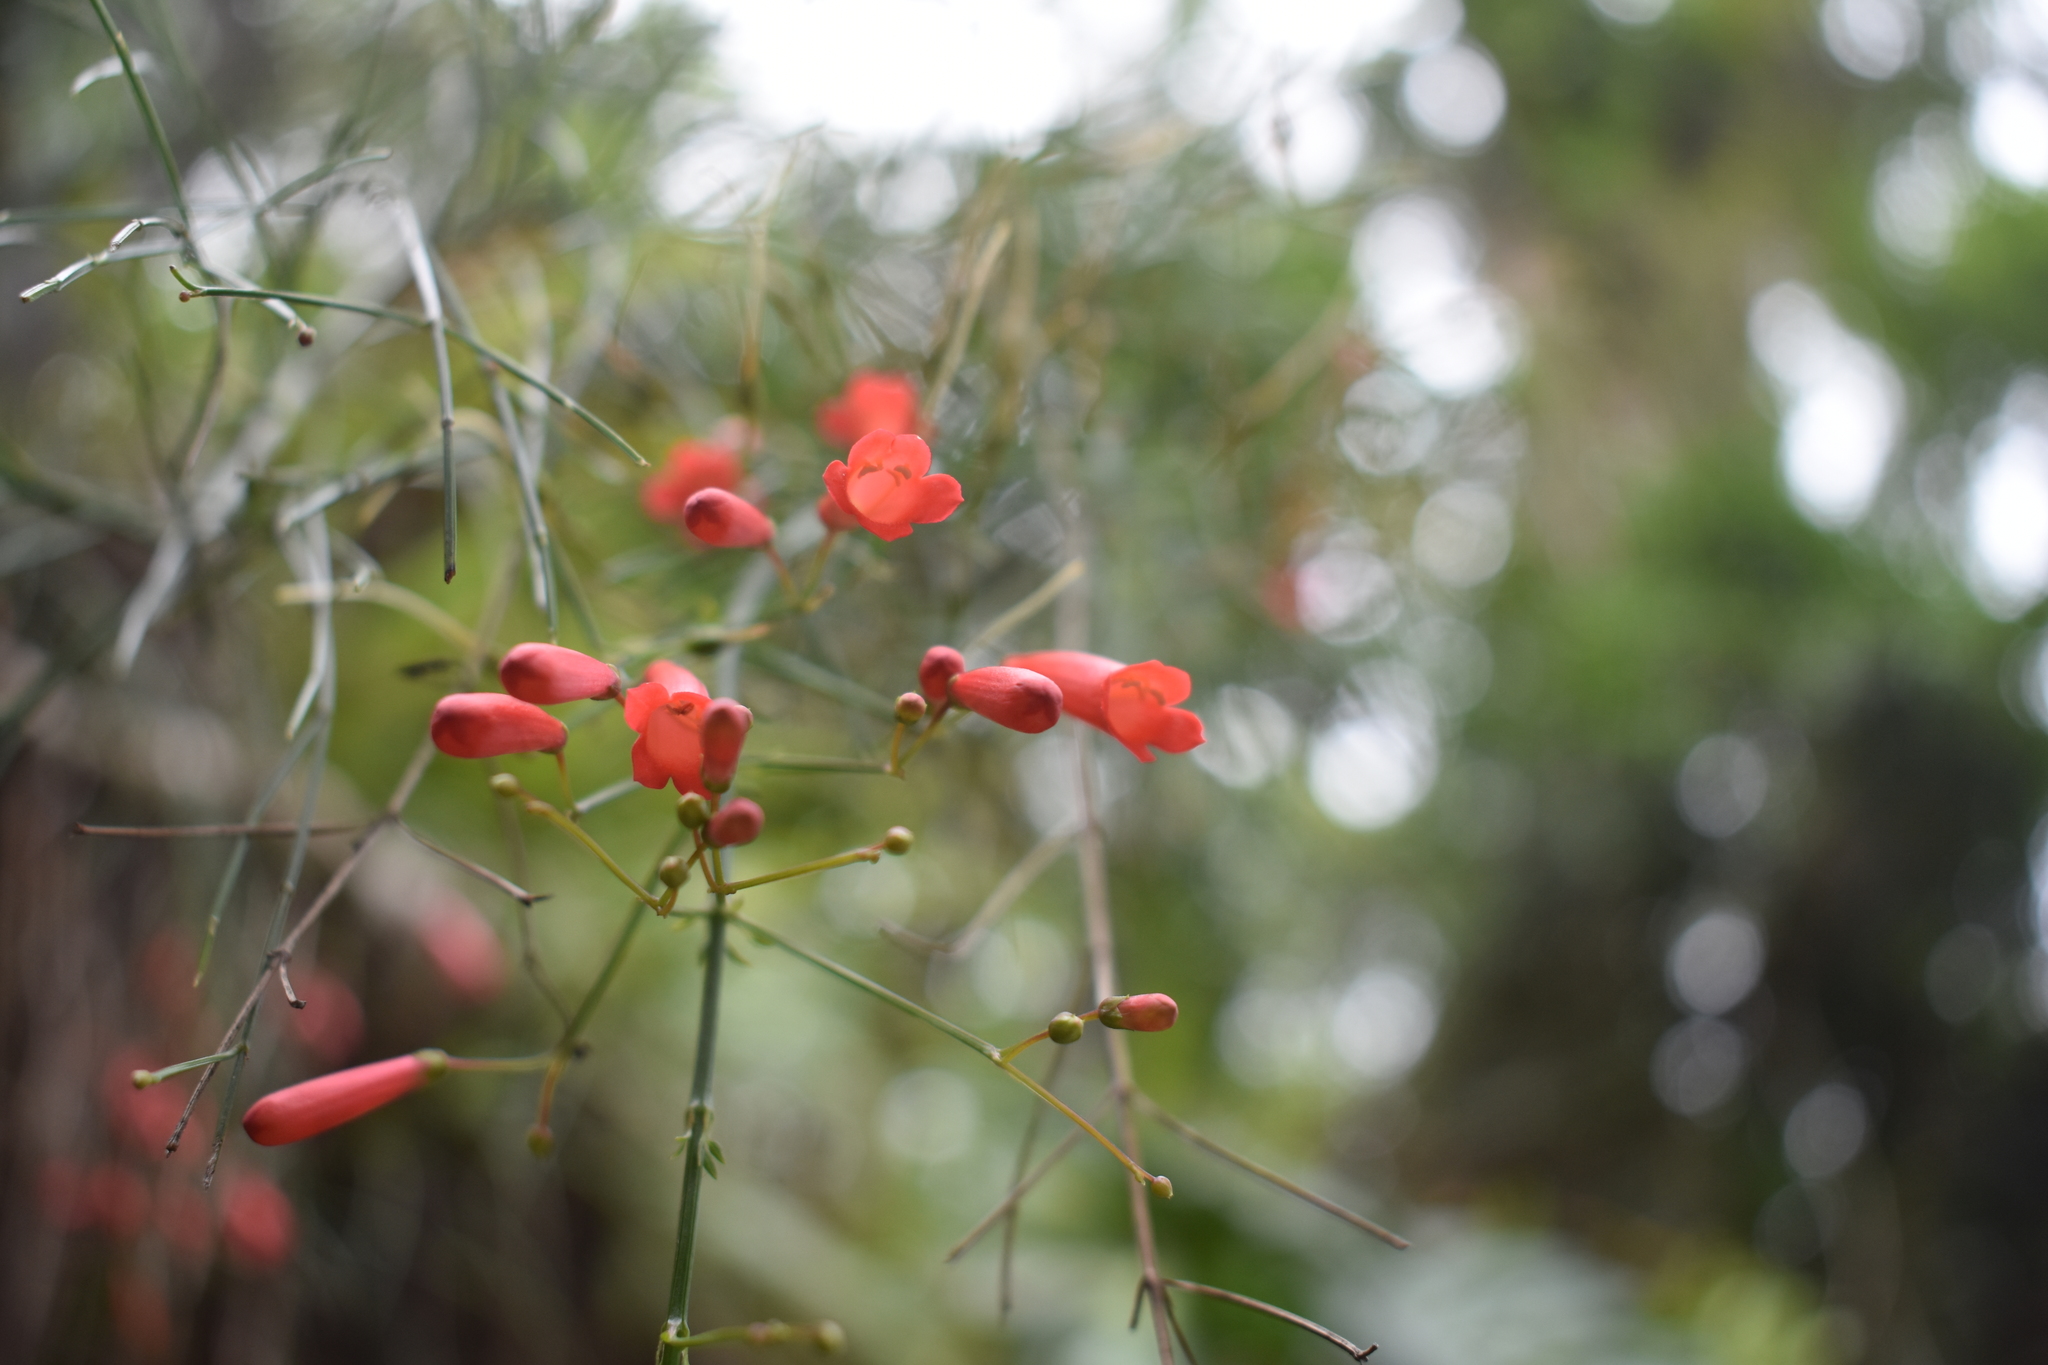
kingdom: Plantae
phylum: Tracheophyta
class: Magnoliopsida
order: Lamiales
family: Plantaginaceae
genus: Russelia
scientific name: Russelia equisetiformis
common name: Fountainbush
